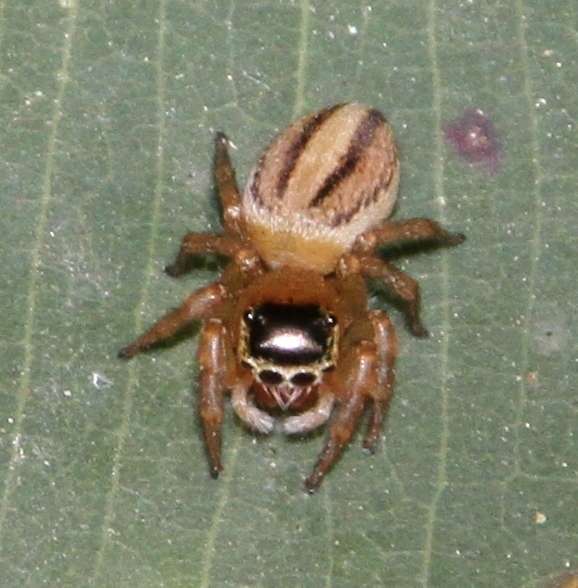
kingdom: Animalia
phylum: Arthropoda
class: Arachnida
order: Araneae
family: Salticidae
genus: Maratus
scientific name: Maratus scutulatus
